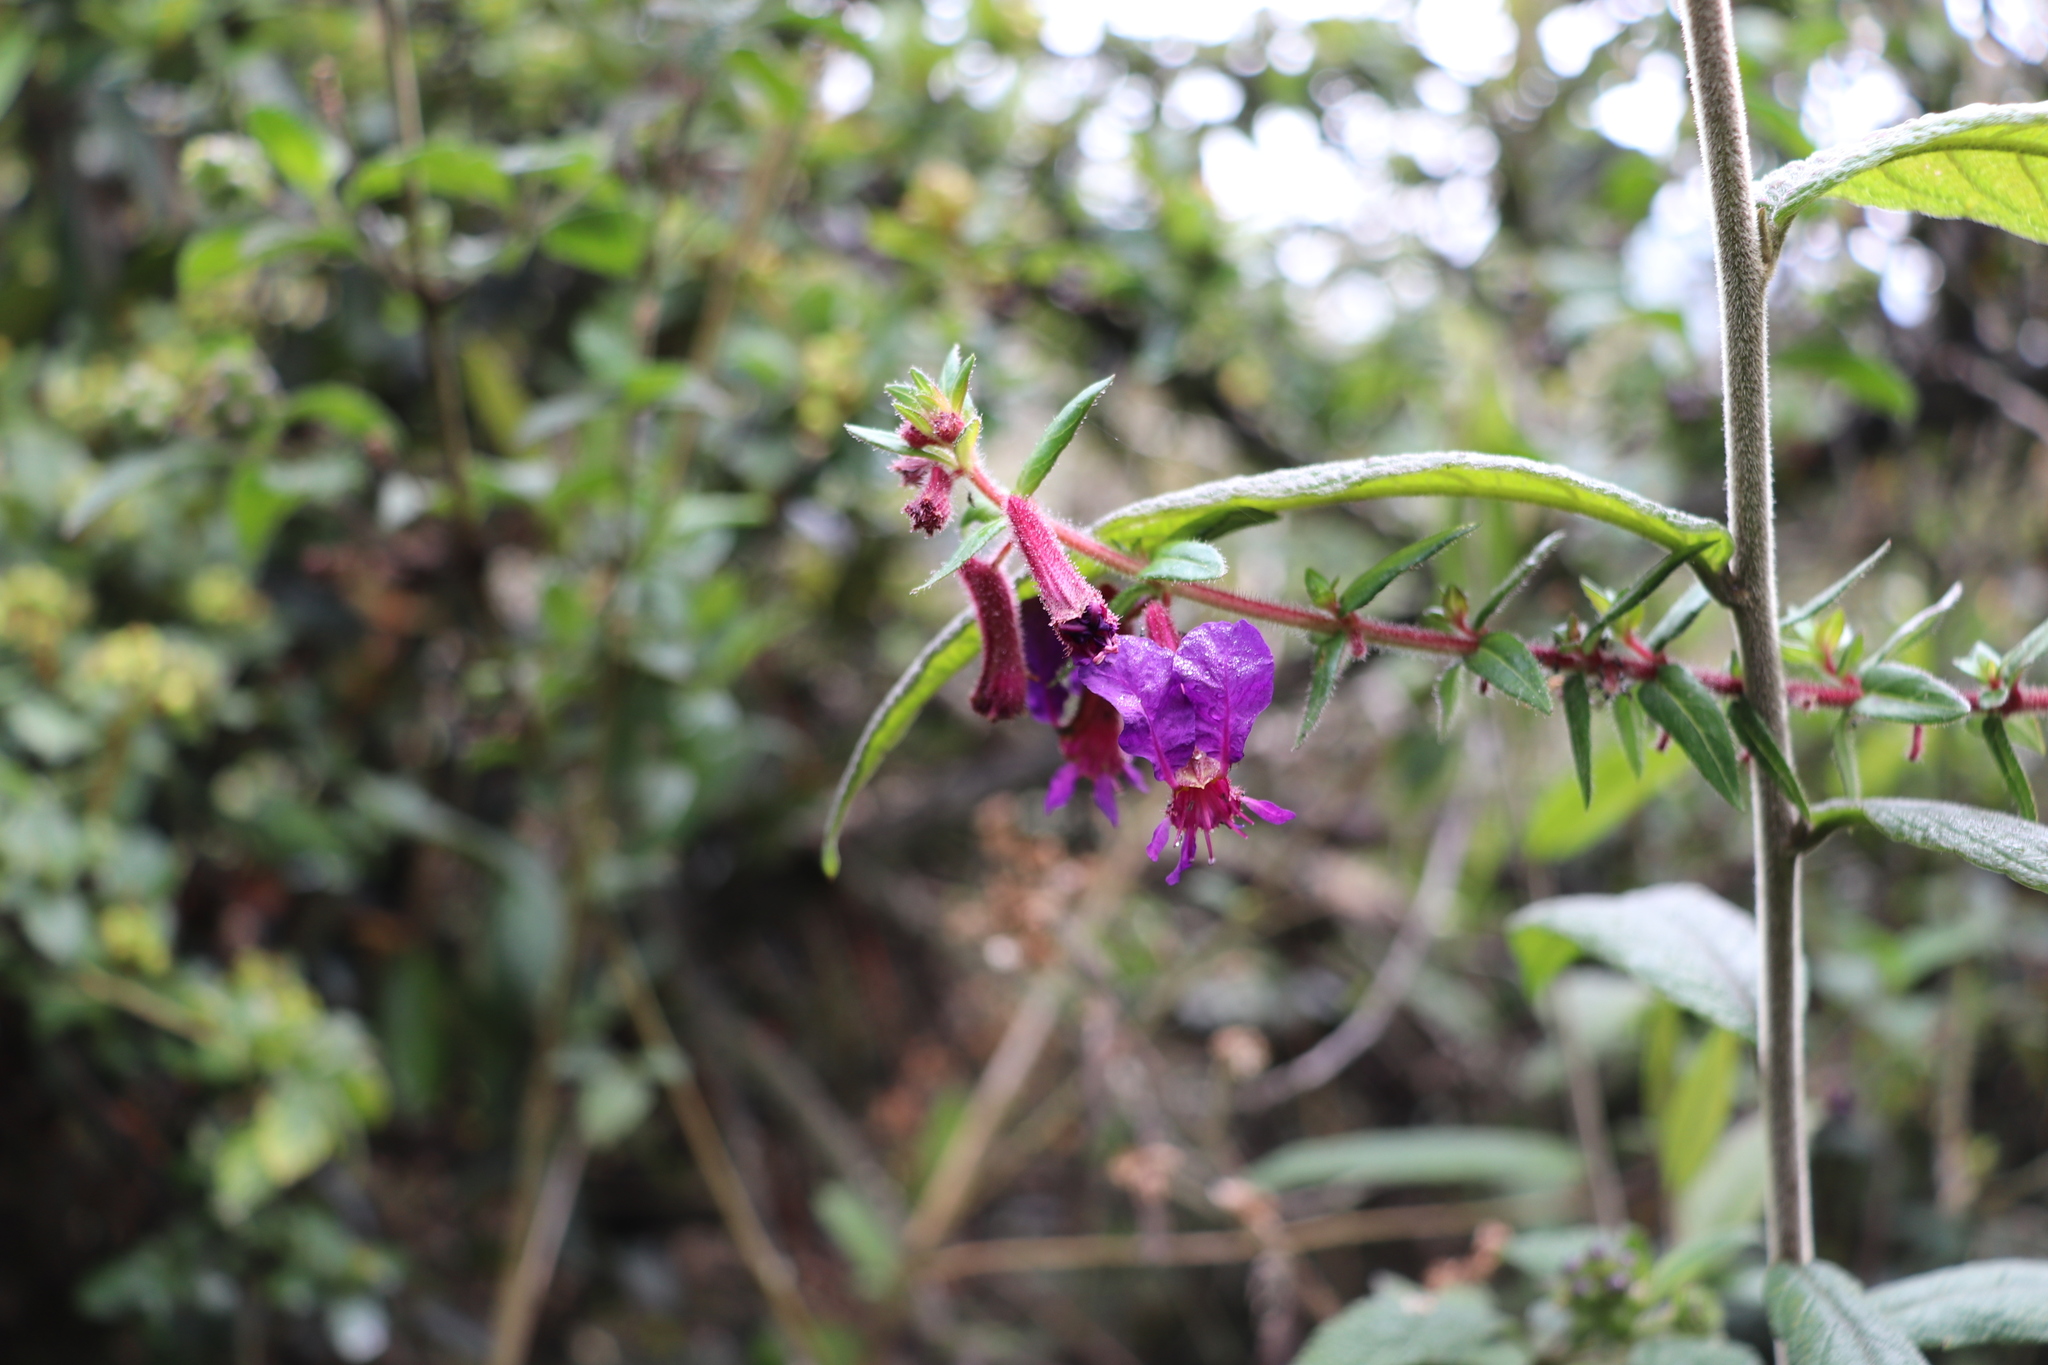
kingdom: Plantae
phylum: Tracheophyta
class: Magnoliopsida
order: Myrtales
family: Lythraceae
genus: Cuphea
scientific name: Cuphea dipetala
